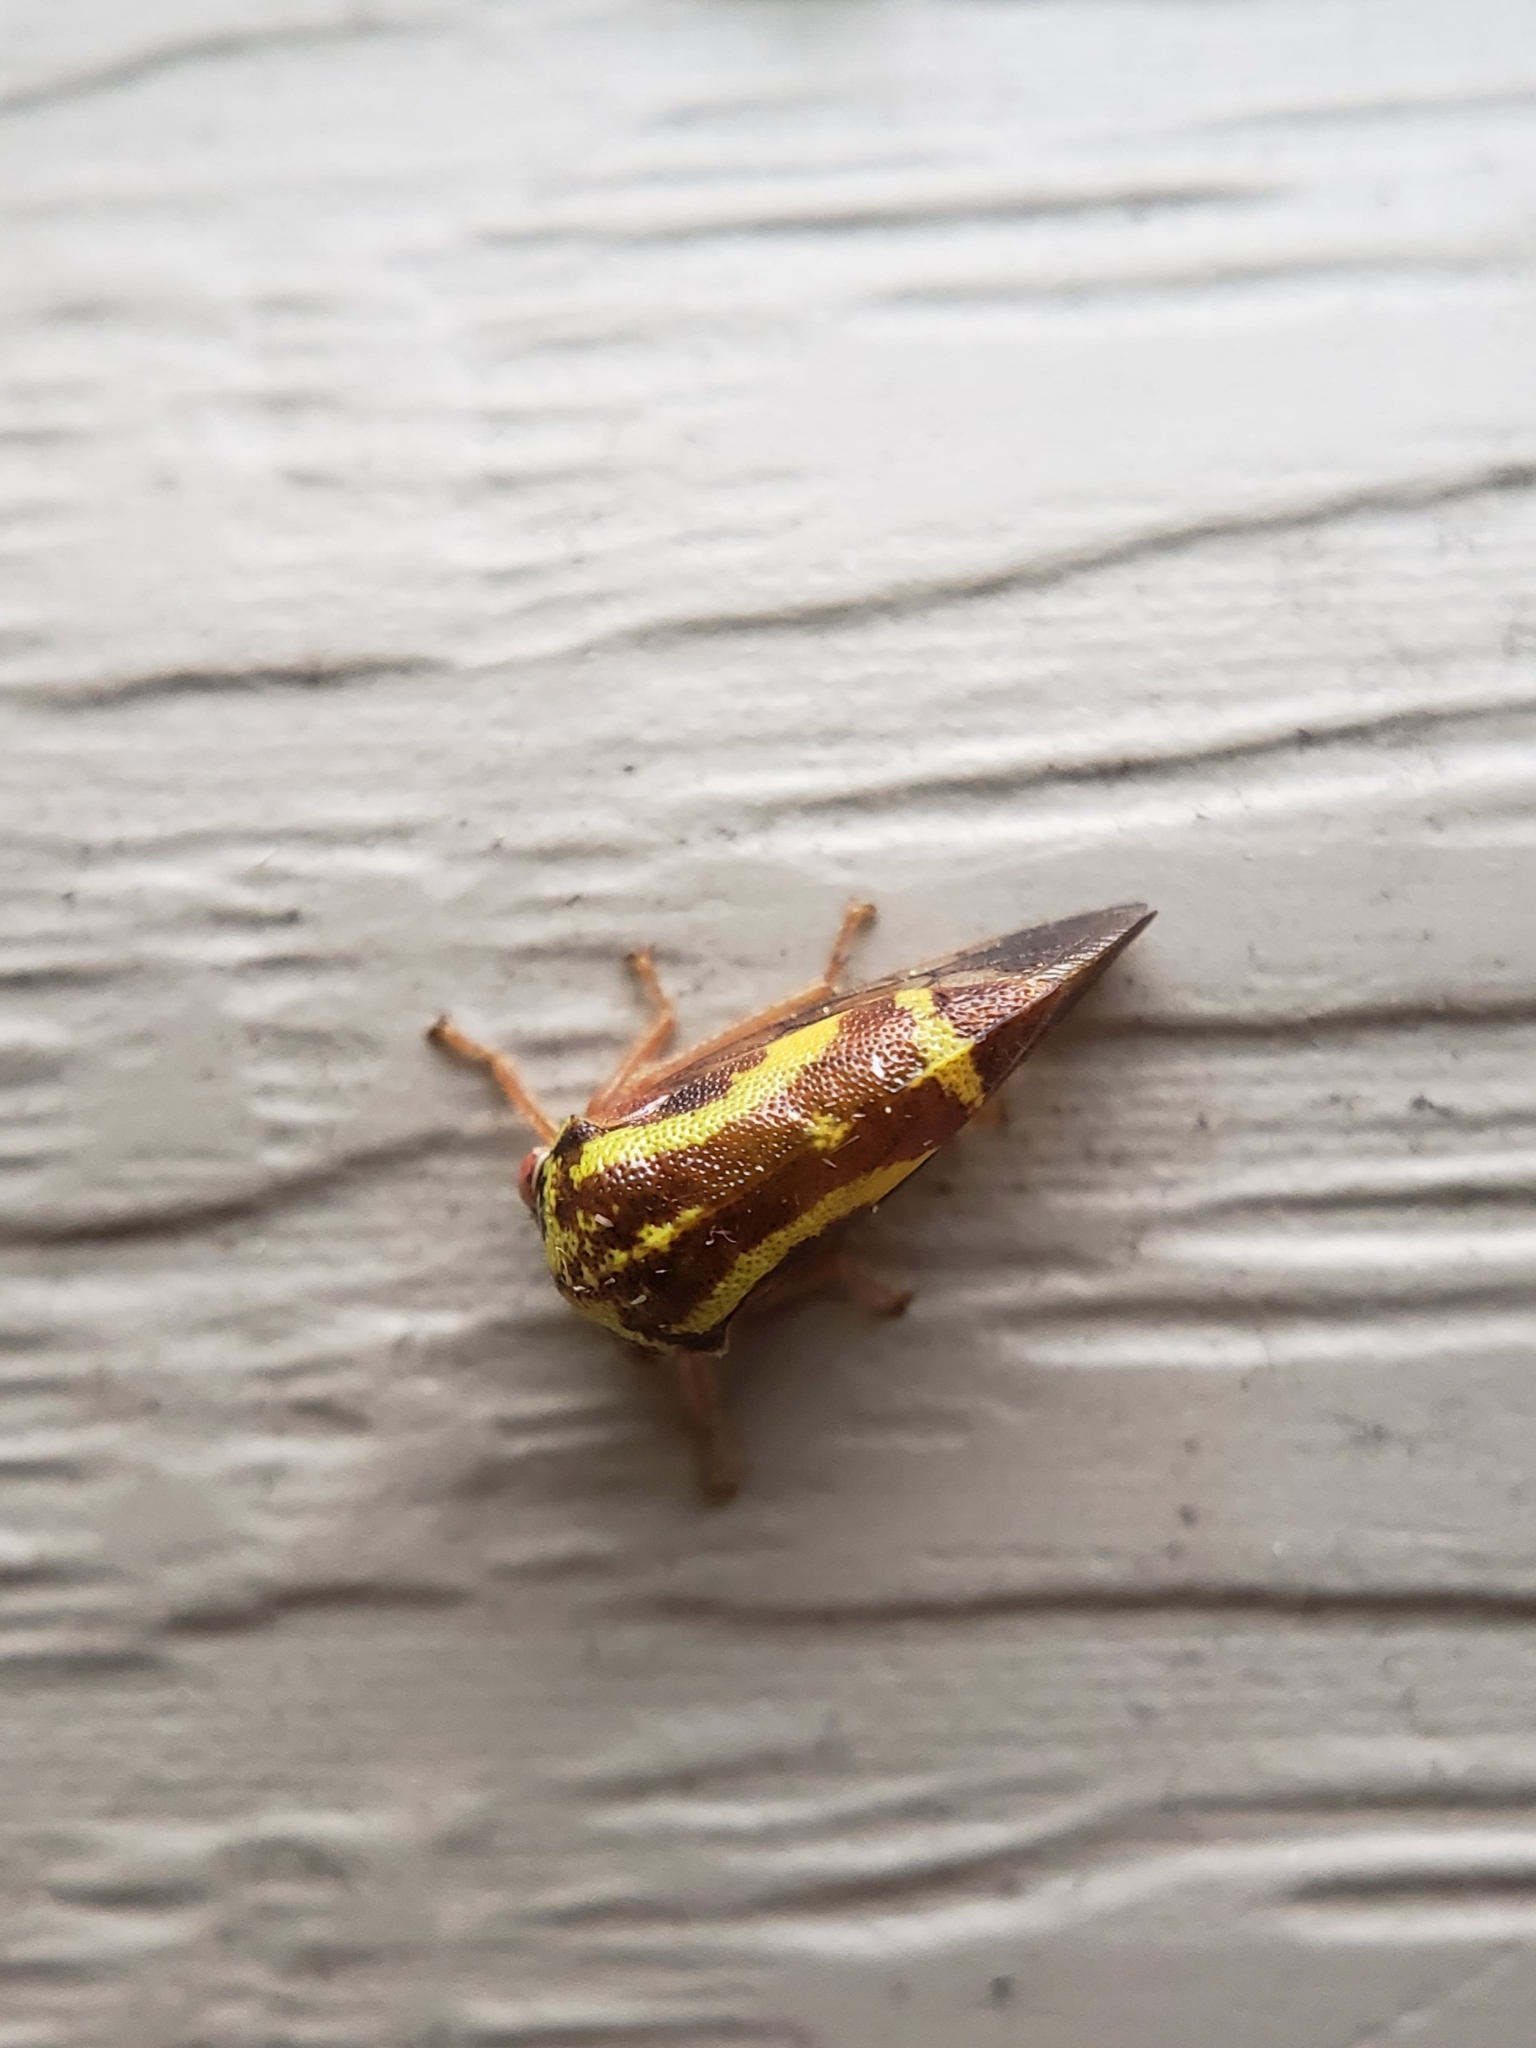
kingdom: Animalia
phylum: Arthropoda
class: Insecta
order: Hemiptera
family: Membracidae
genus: Ophiderma
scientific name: Ophiderma flava
